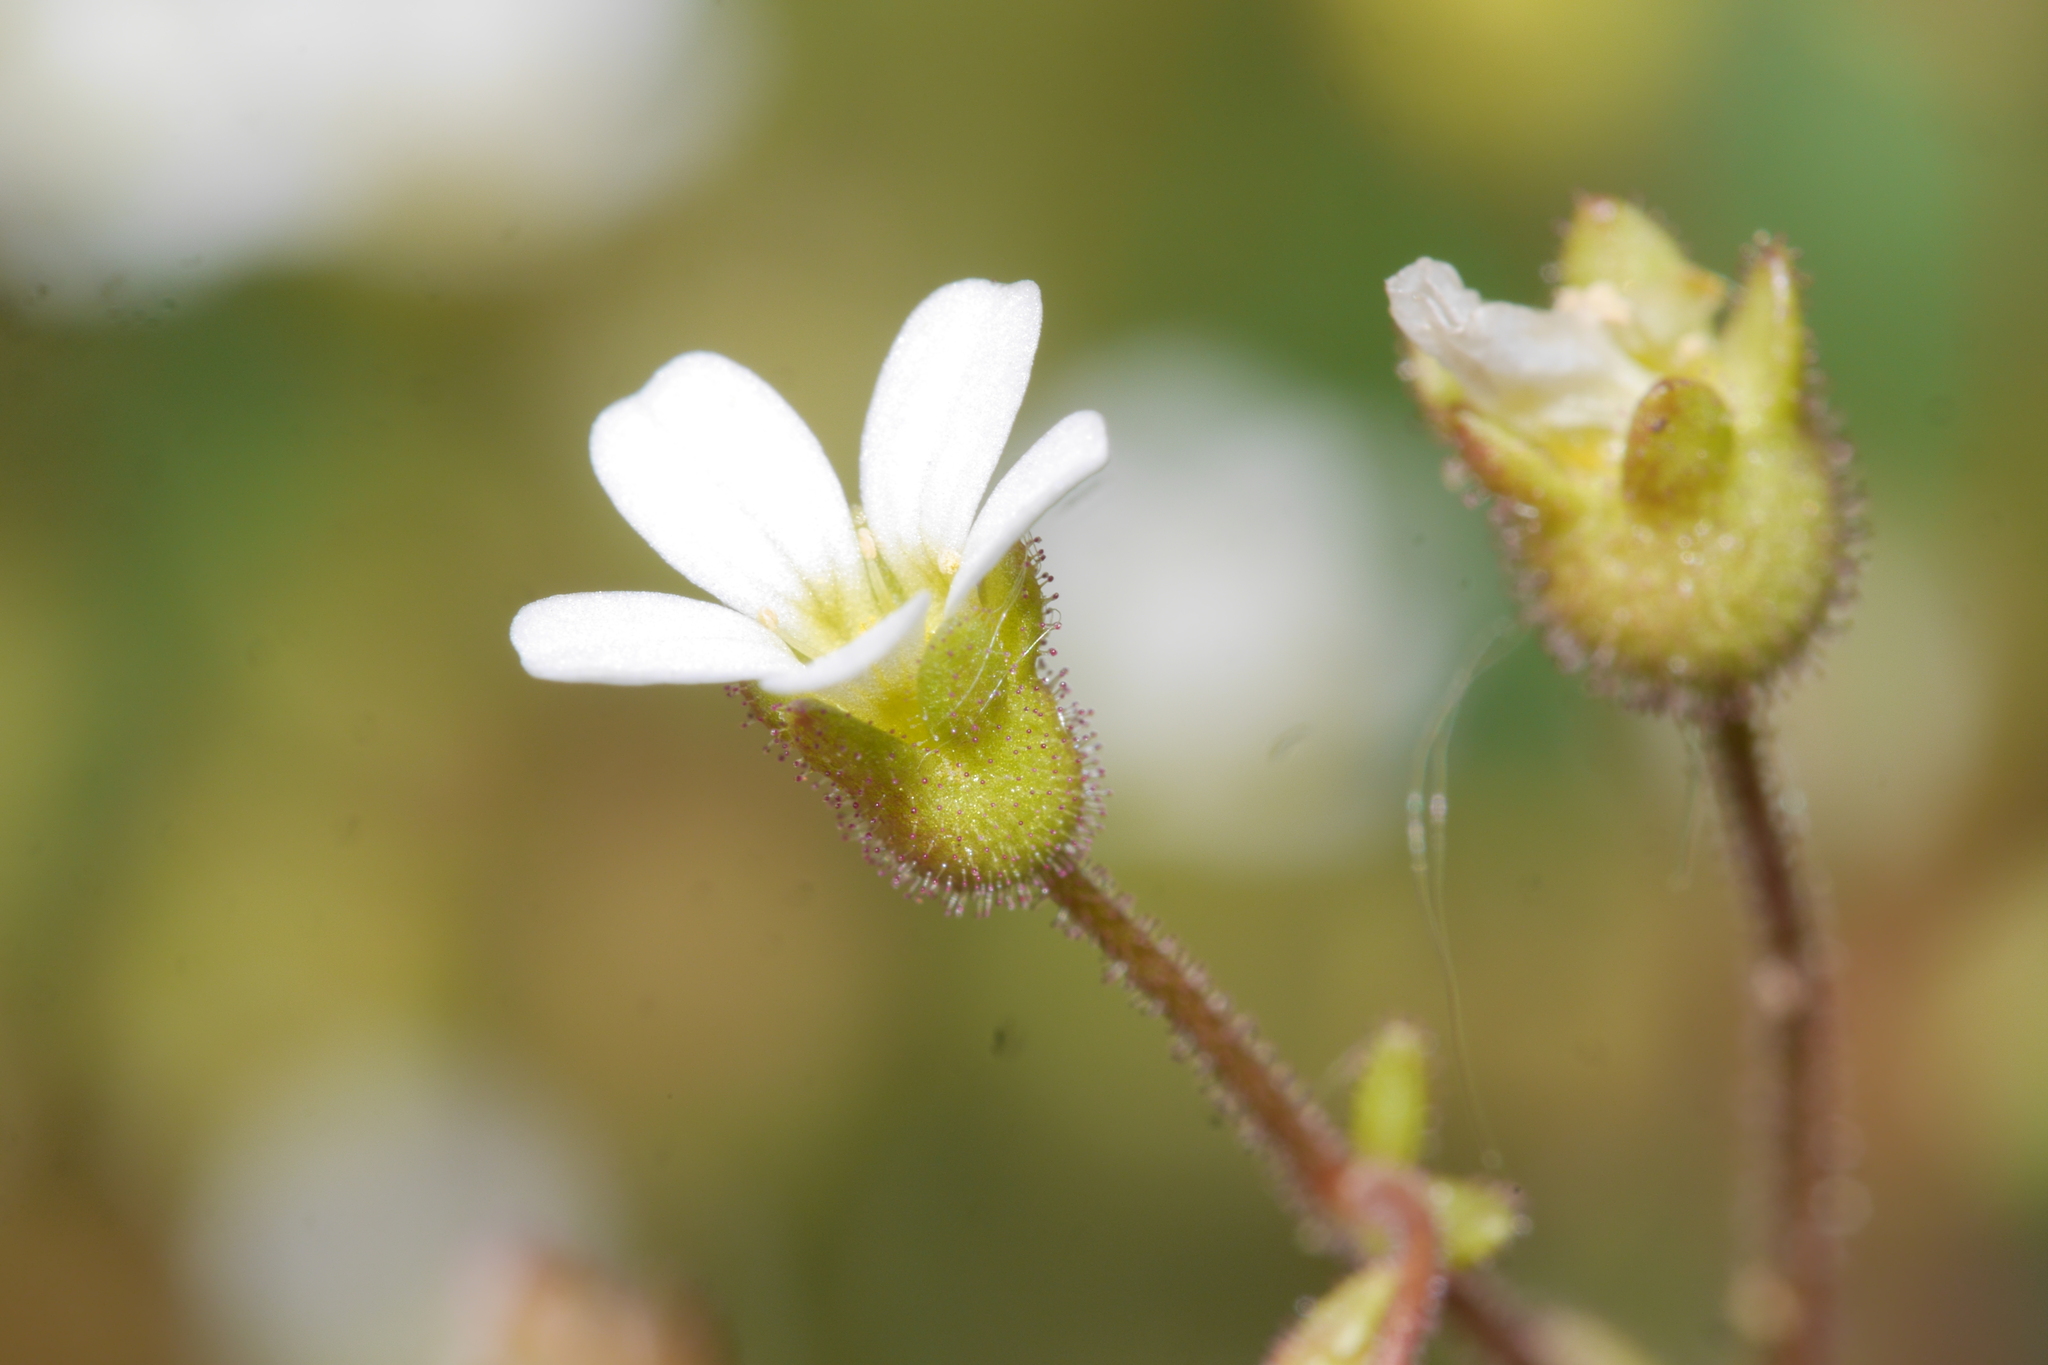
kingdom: Plantae
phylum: Tracheophyta
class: Magnoliopsida
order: Saxifragales
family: Saxifragaceae
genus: Saxifraga
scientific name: Saxifraga tridactylites
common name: Rue-leaved saxifrage
